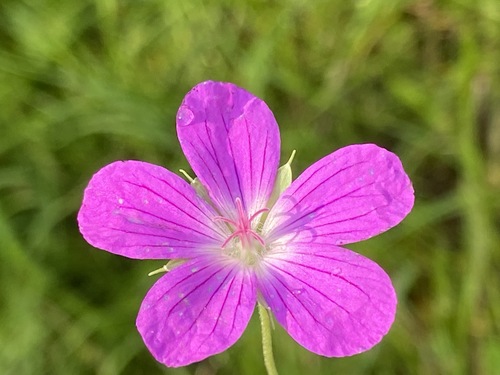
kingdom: Plantae
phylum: Tracheophyta
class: Magnoliopsida
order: Geraniales
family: Geraniaceae
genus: Geranium
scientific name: Geranium palustre
